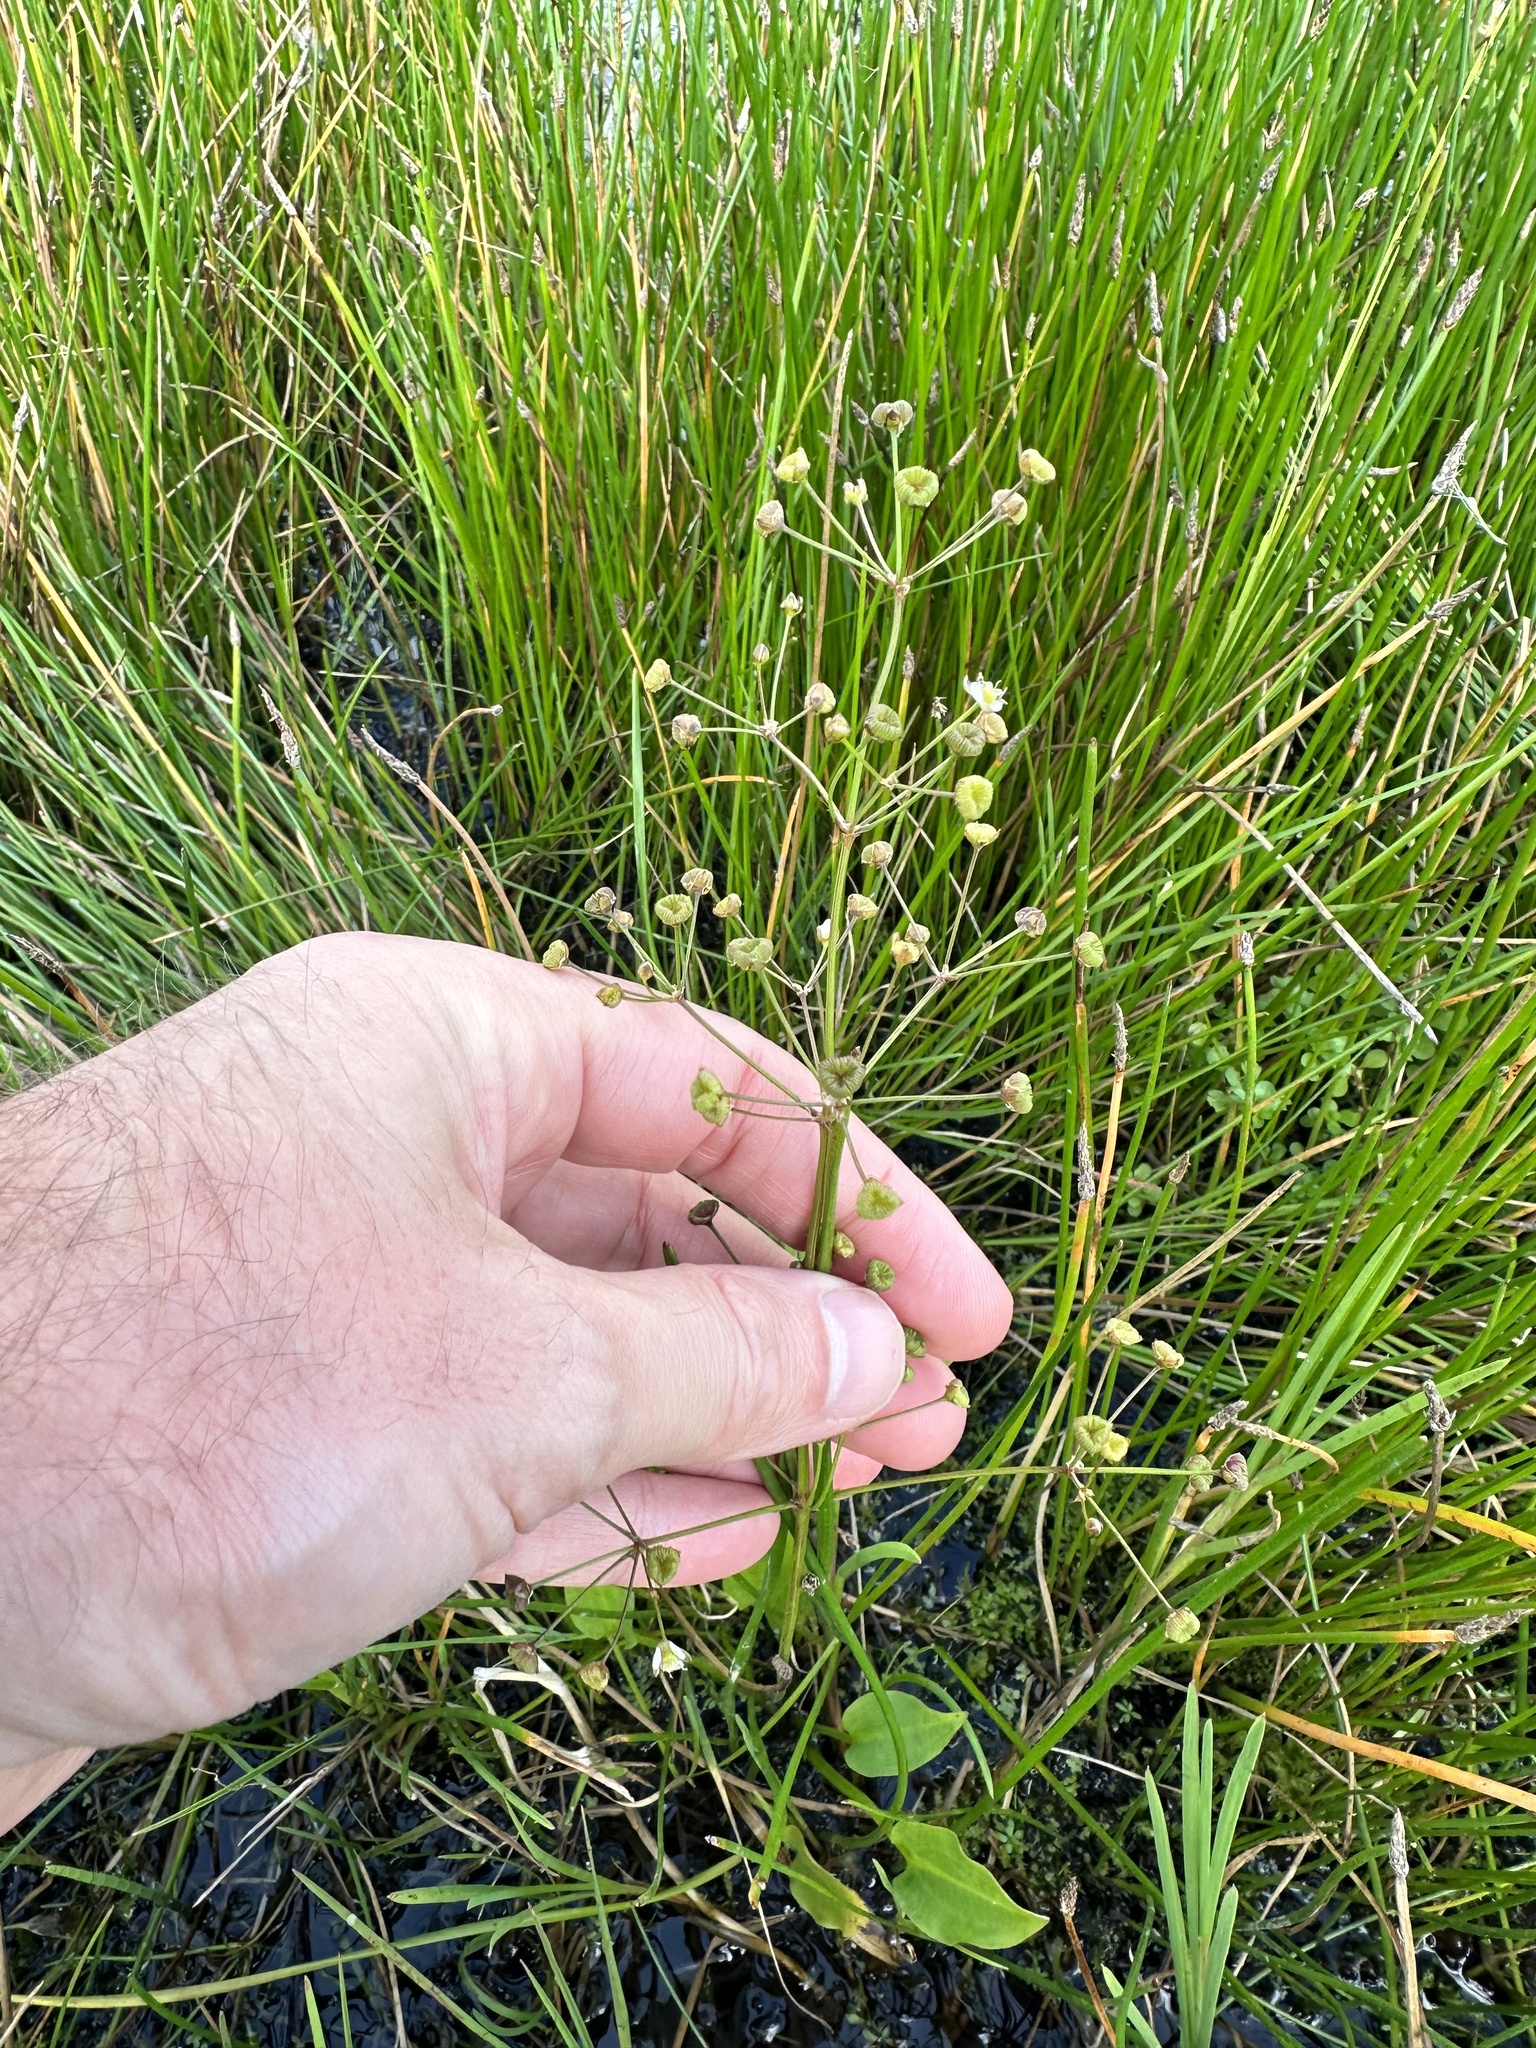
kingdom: Plantae
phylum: Tracheophyta
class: Liliopsida
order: Alismatales
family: Alismataceae
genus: Alisma
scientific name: Alisma plantago-aquatica
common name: Water-plantain
